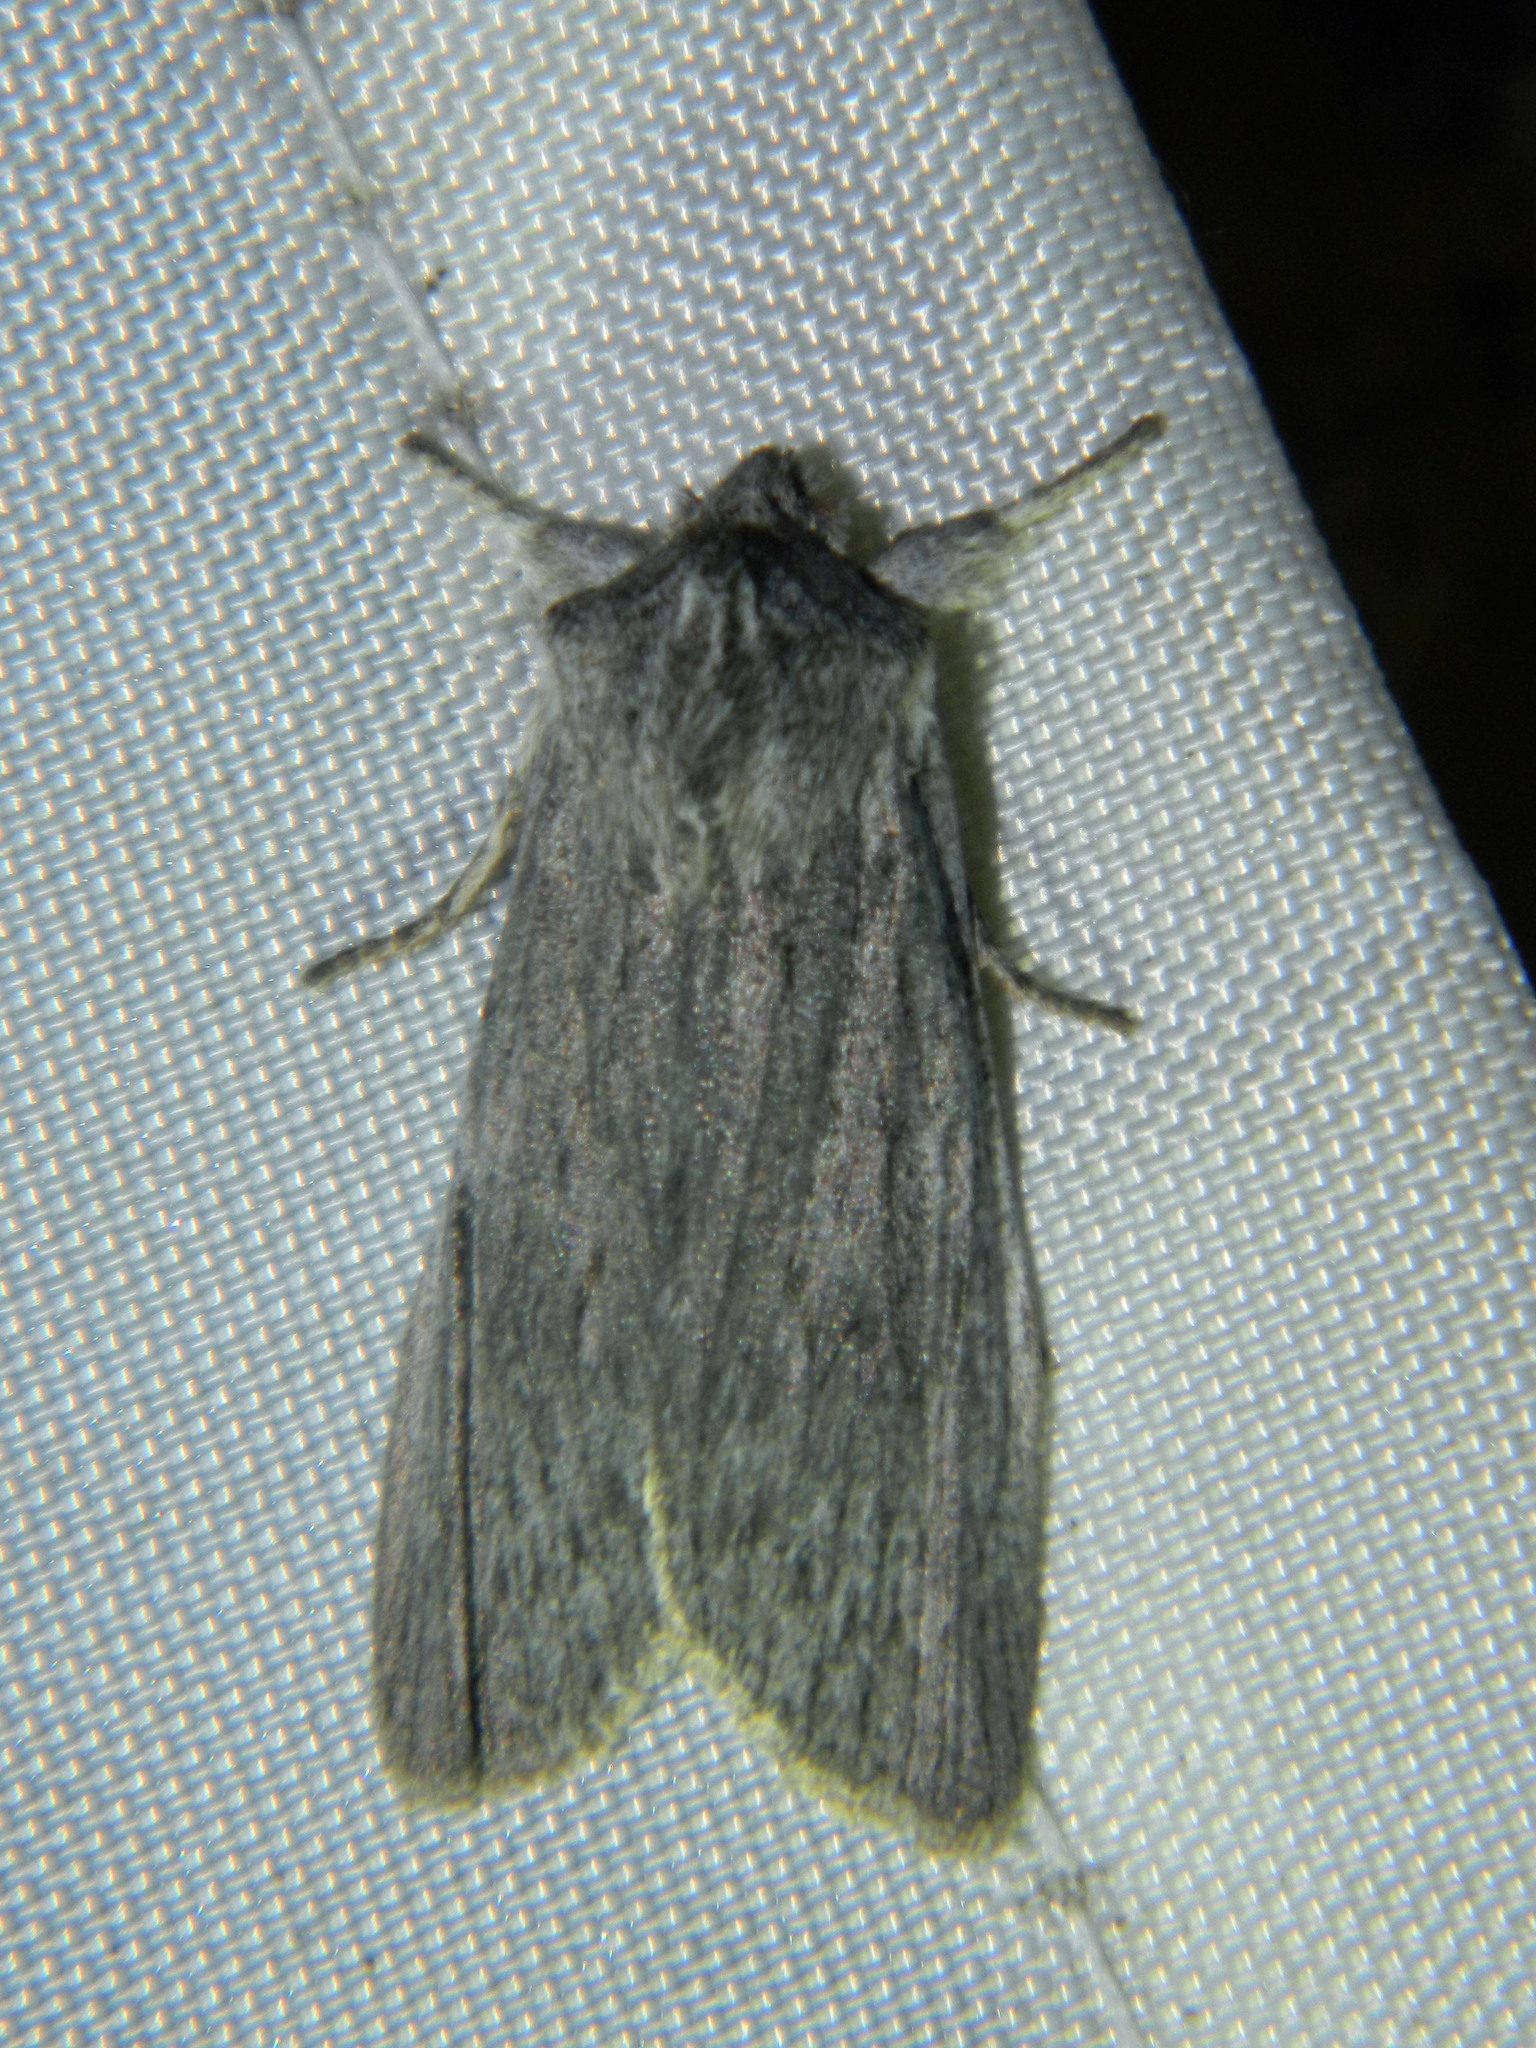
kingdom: Animalia
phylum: Arthropoda
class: Insecta
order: Lepidoptera
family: Noctuidae
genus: Lithophane
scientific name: Lithophane fagina
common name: Hoary pinion moth
